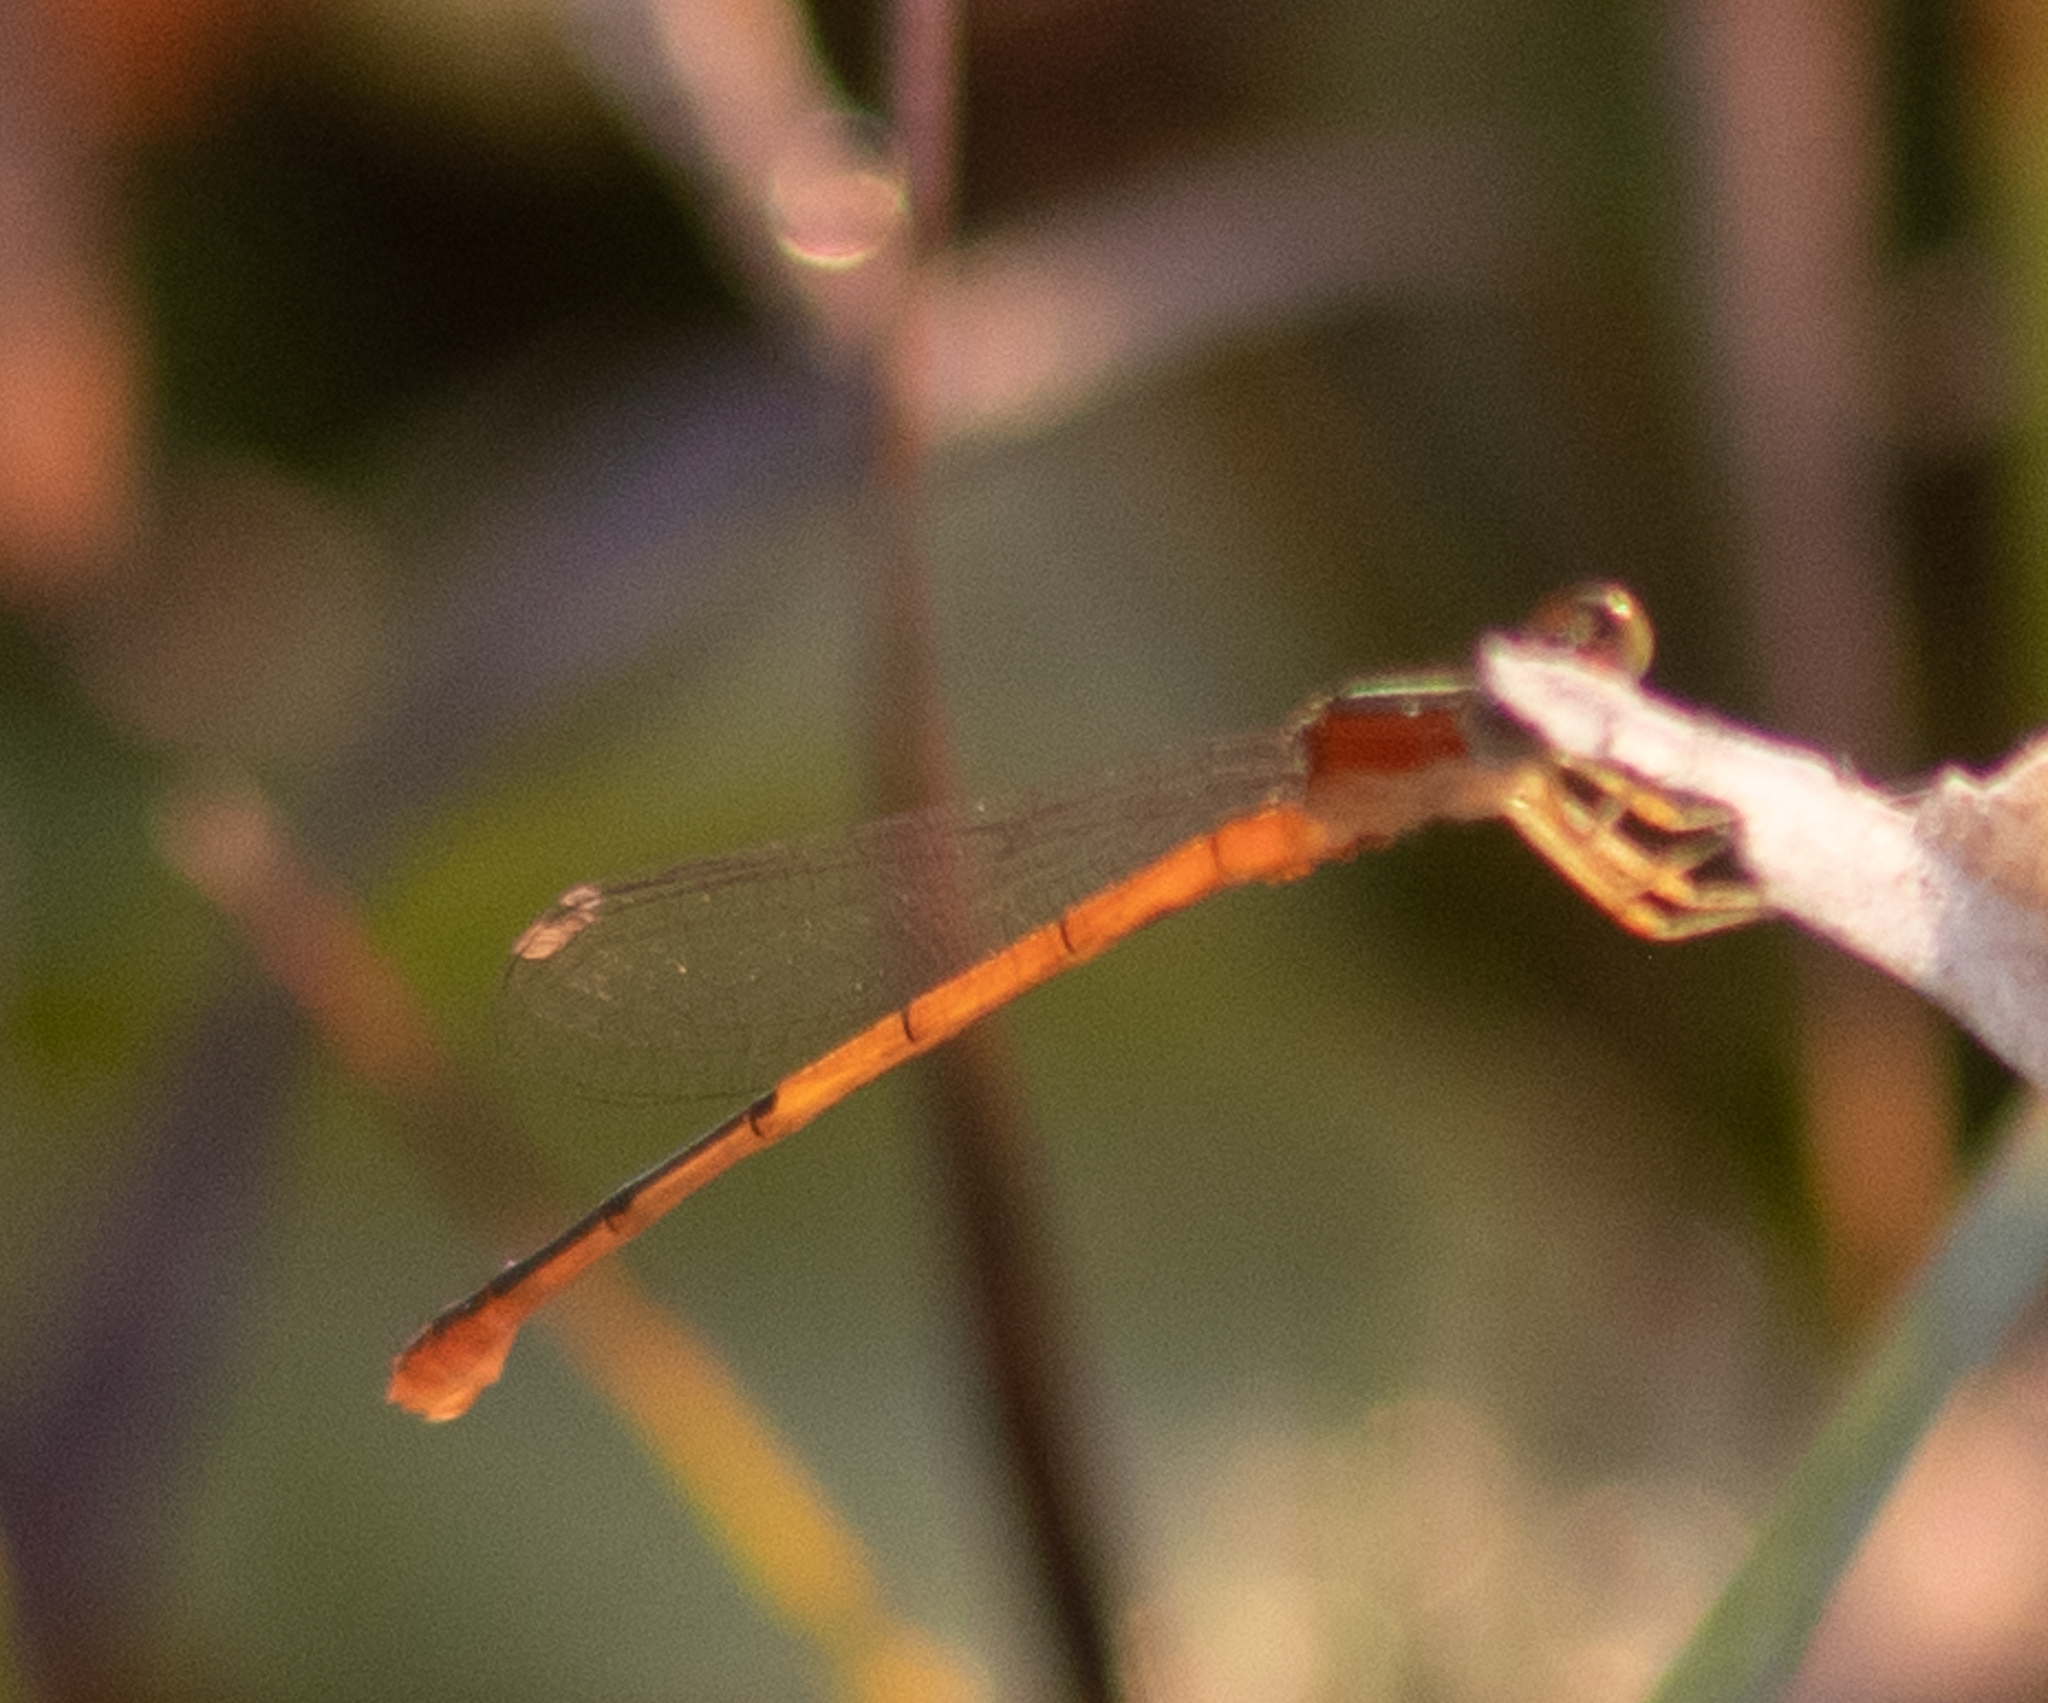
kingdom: Animalia
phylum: Arthropoda
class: Insecta
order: Odonata
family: Coenagrionidae
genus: Ischnura
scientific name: Ischnura hastata
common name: Citrine forktail
